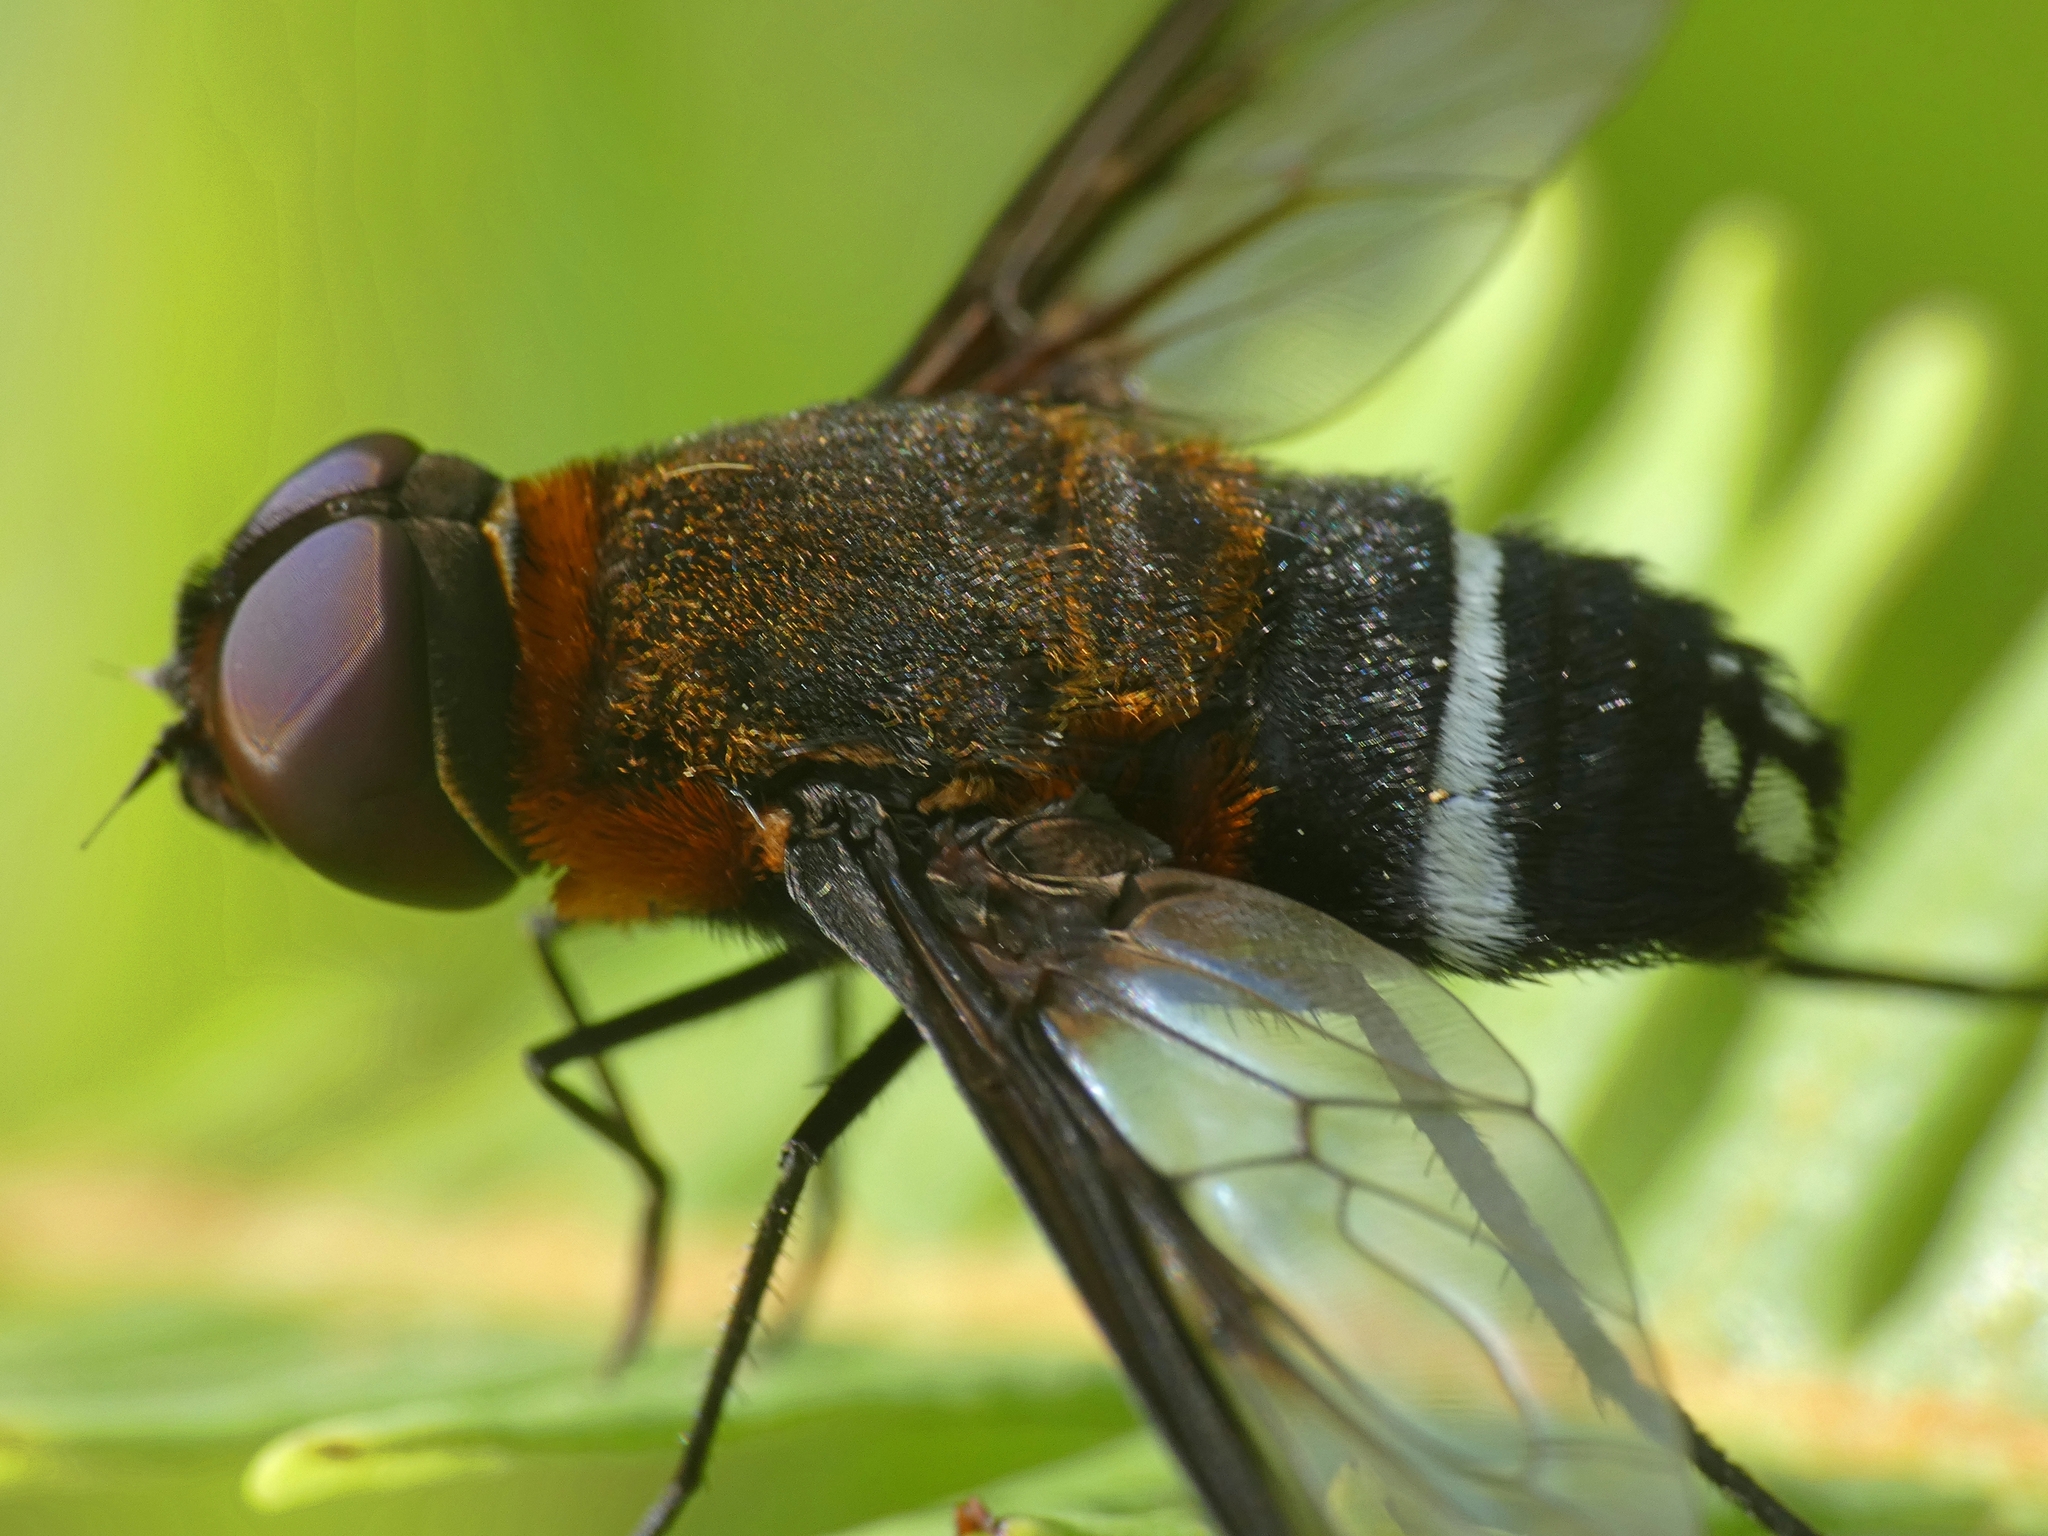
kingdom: Animalia
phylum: Arthropoda
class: Insecta
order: Diptera
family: Bombyliidae
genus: Ligyra
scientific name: Ligyra doryca
